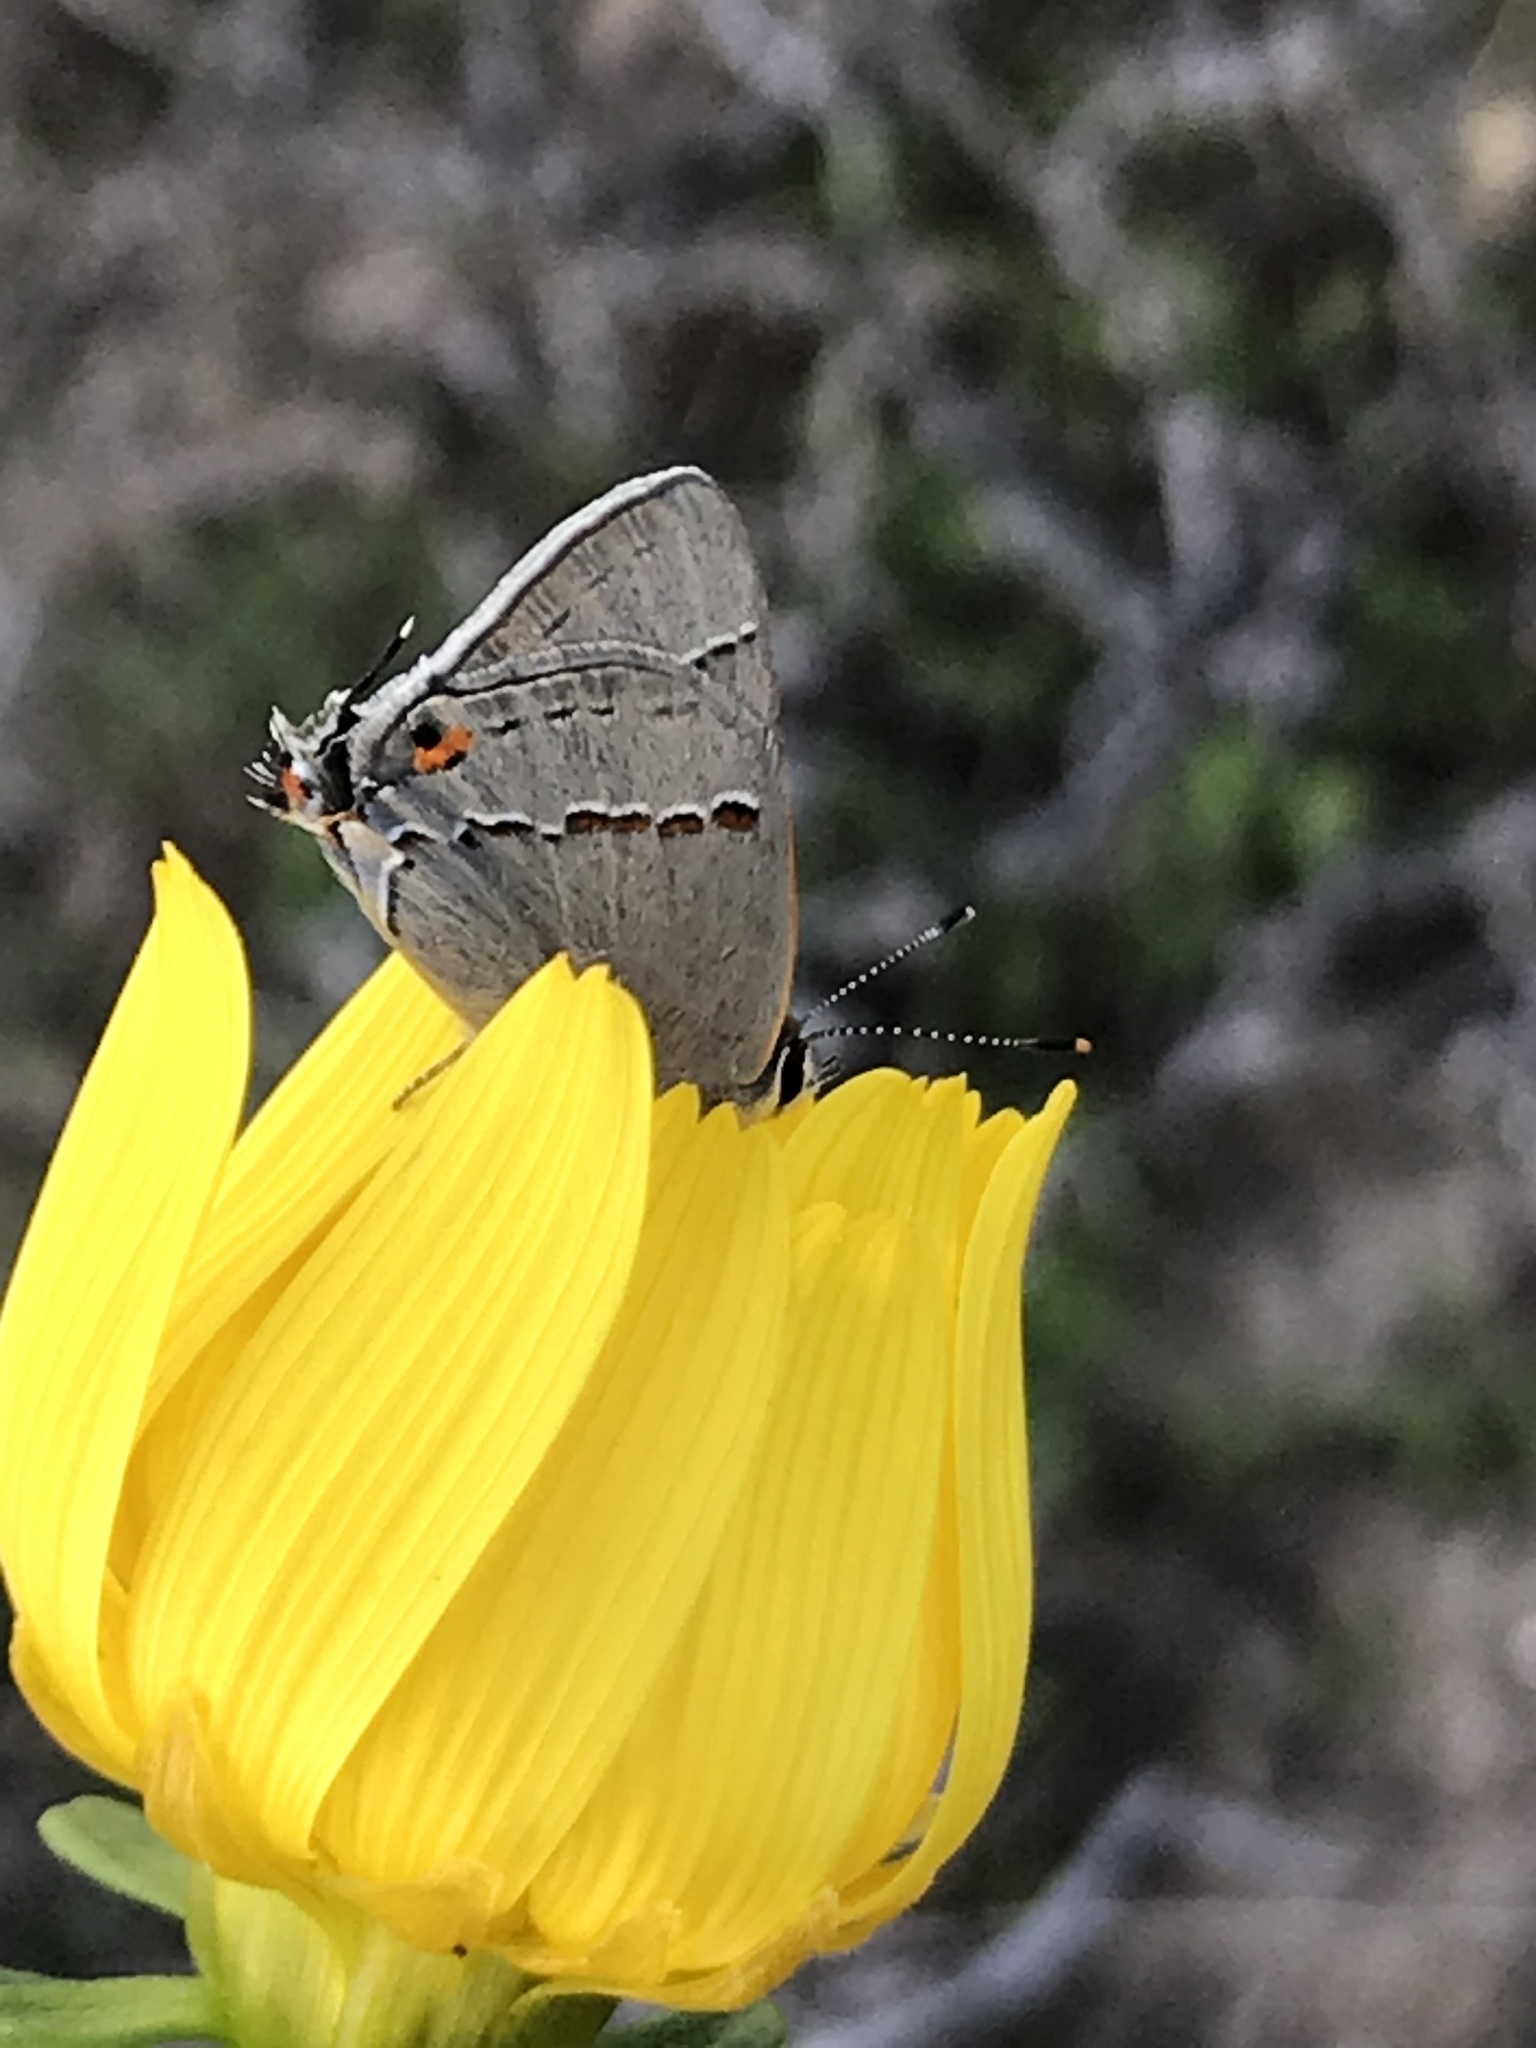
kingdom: Animalia
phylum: Arthropoda
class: Insecta
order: Lepidoptera
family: Lycaenidae
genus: Strymon
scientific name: Strymon melinus
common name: Gray hairstreak
